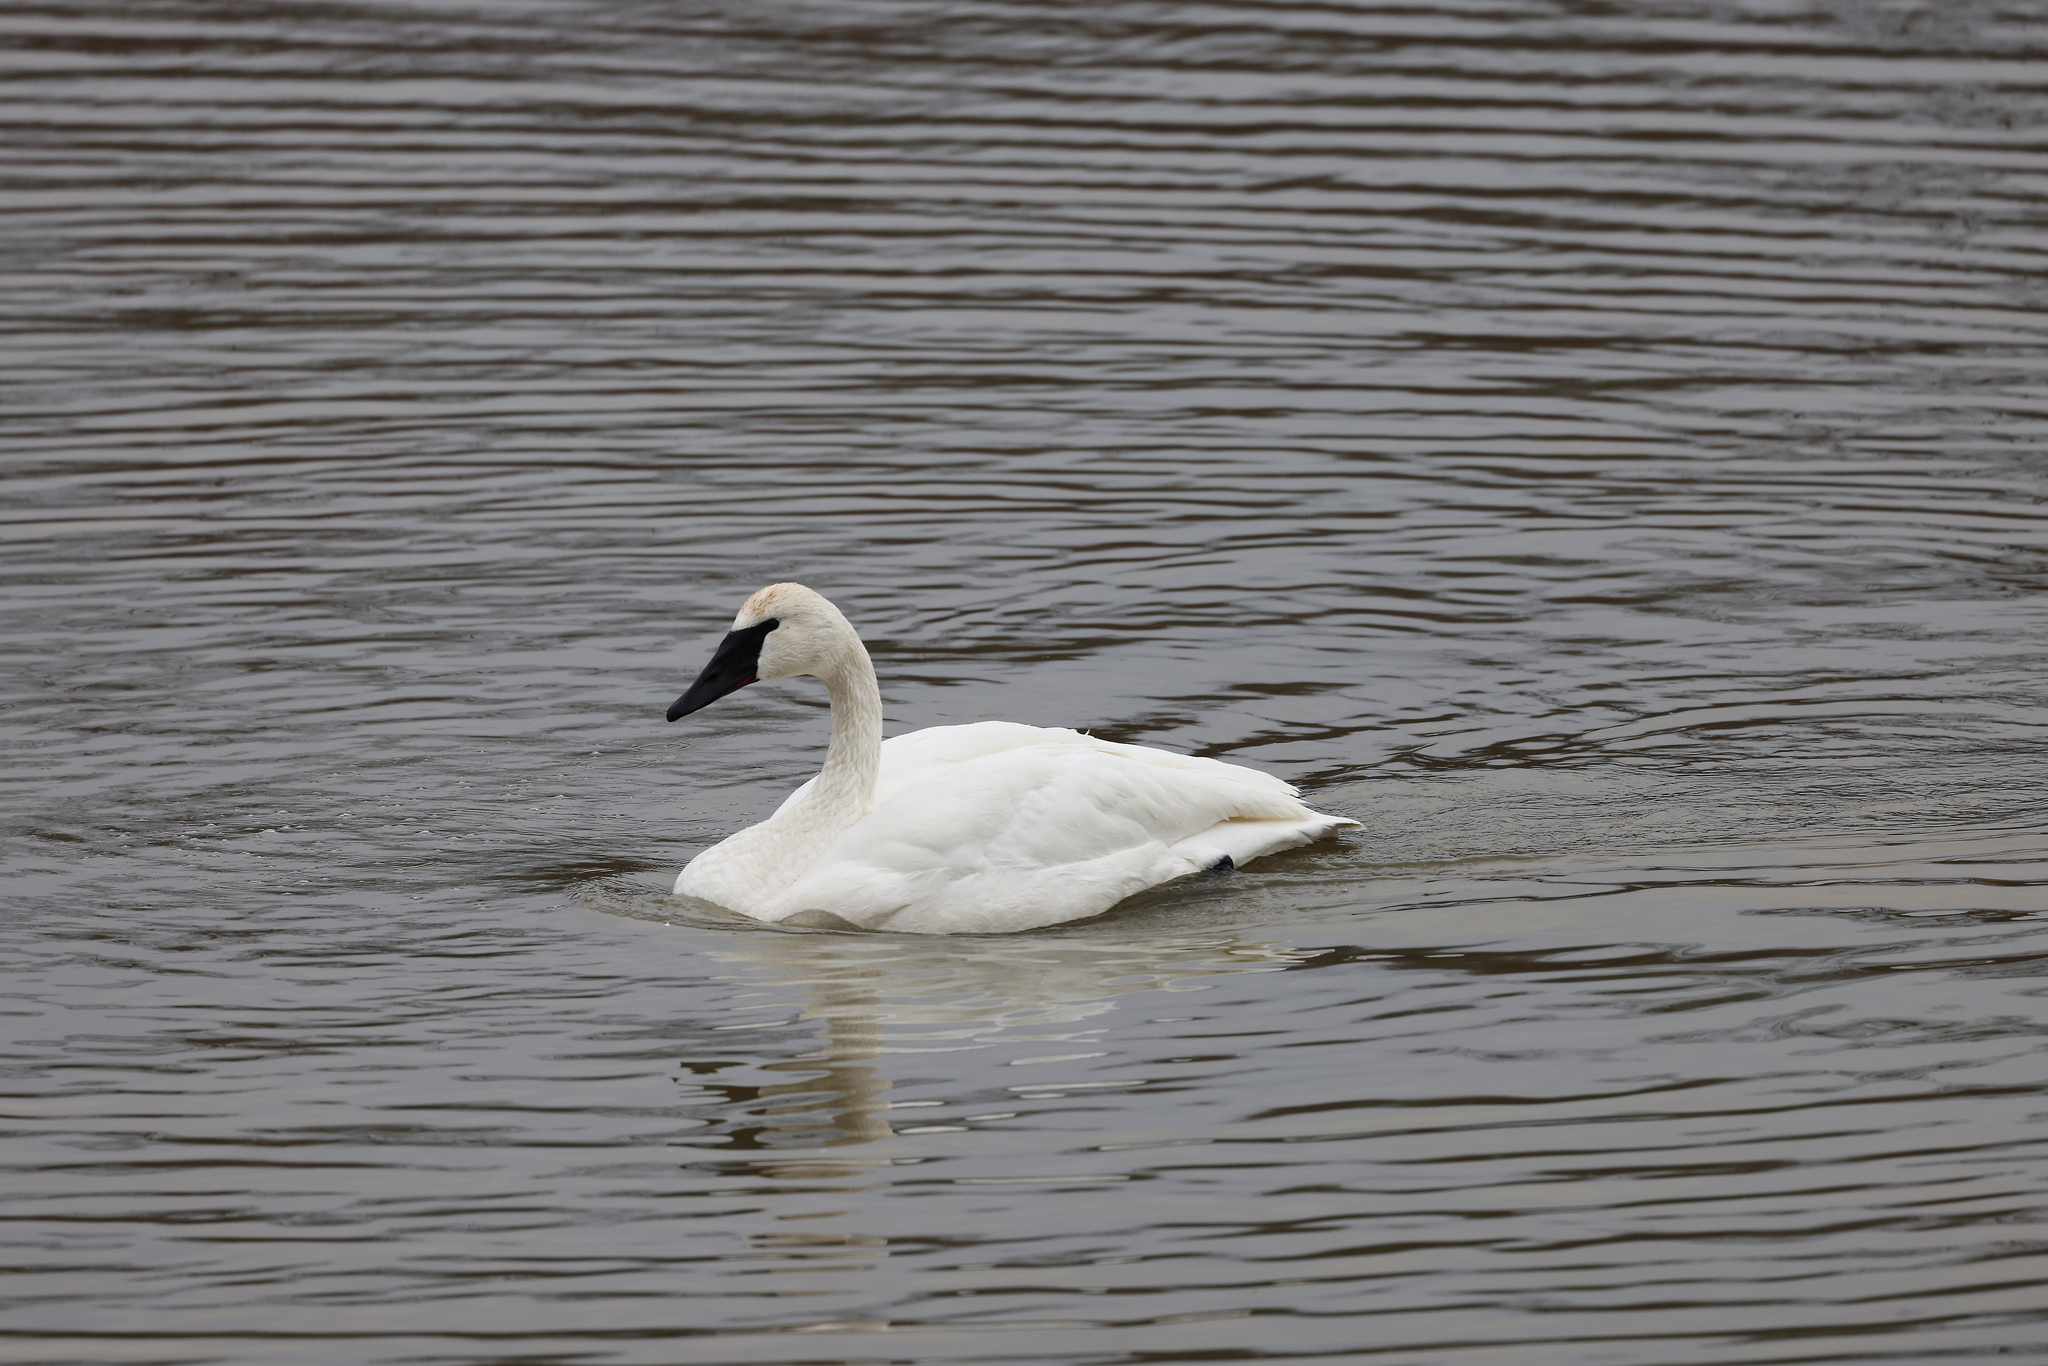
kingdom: Animalia
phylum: Chordata
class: Aves
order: Anseriformes
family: Anatidae
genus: Cygnus
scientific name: Cygnus buccinator
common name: Trumpeter swan
